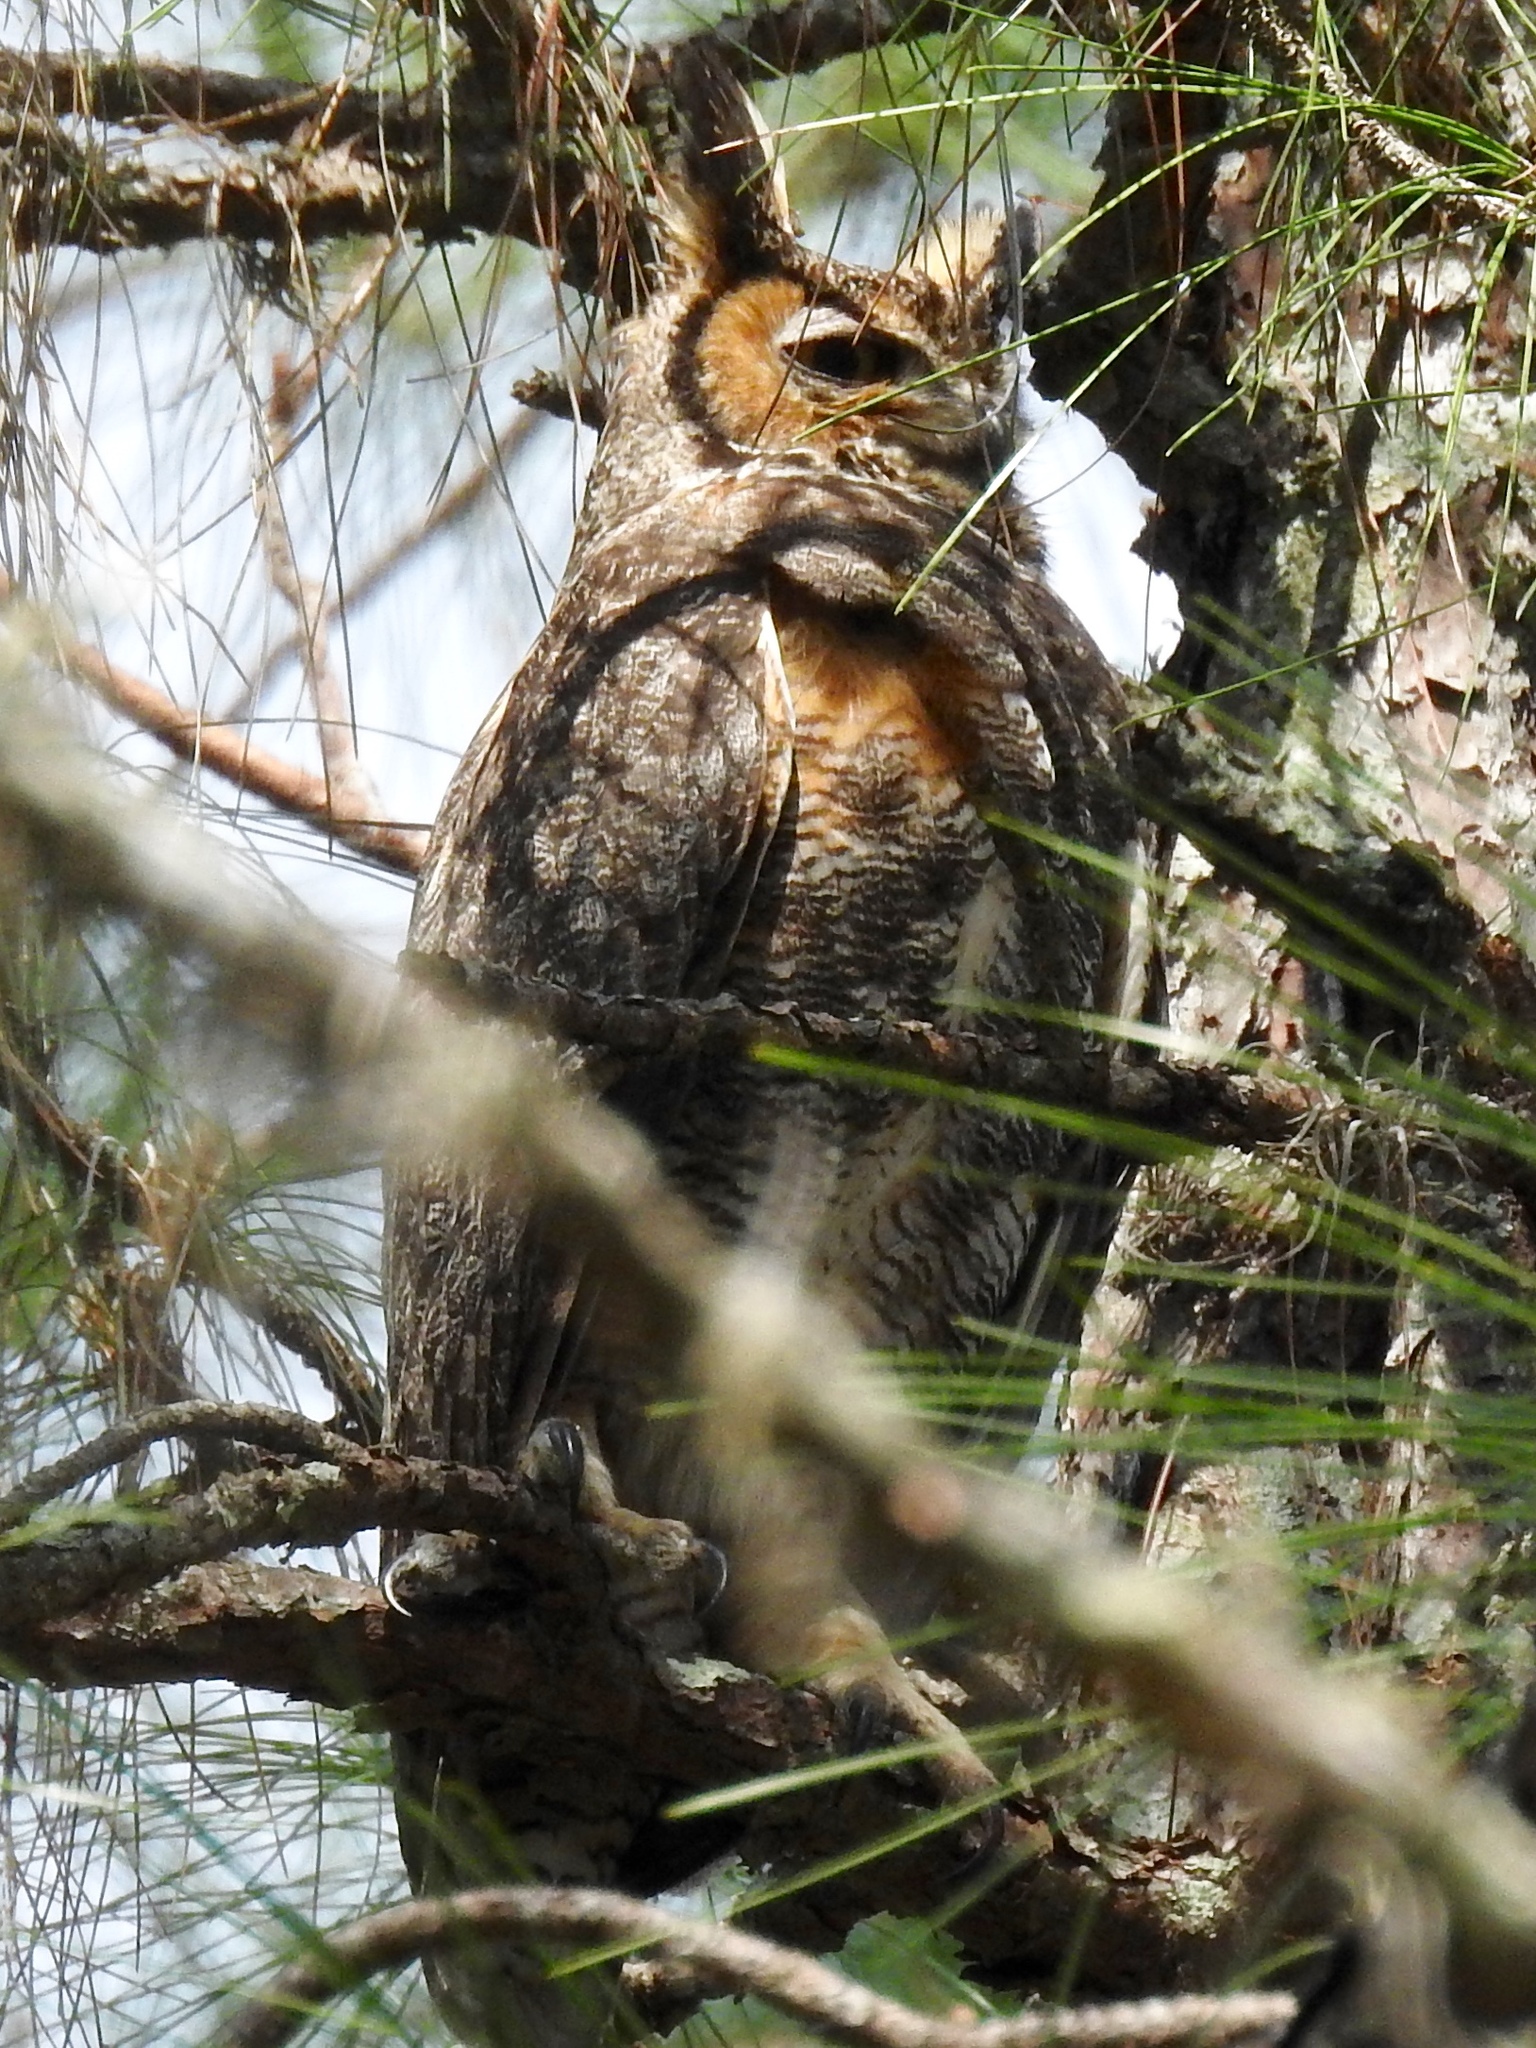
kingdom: Animalia
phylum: Chordata
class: Aves
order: Strigiformes
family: Strigidae
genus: Bubo
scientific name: Bubo virginianus
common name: Great horned owl
